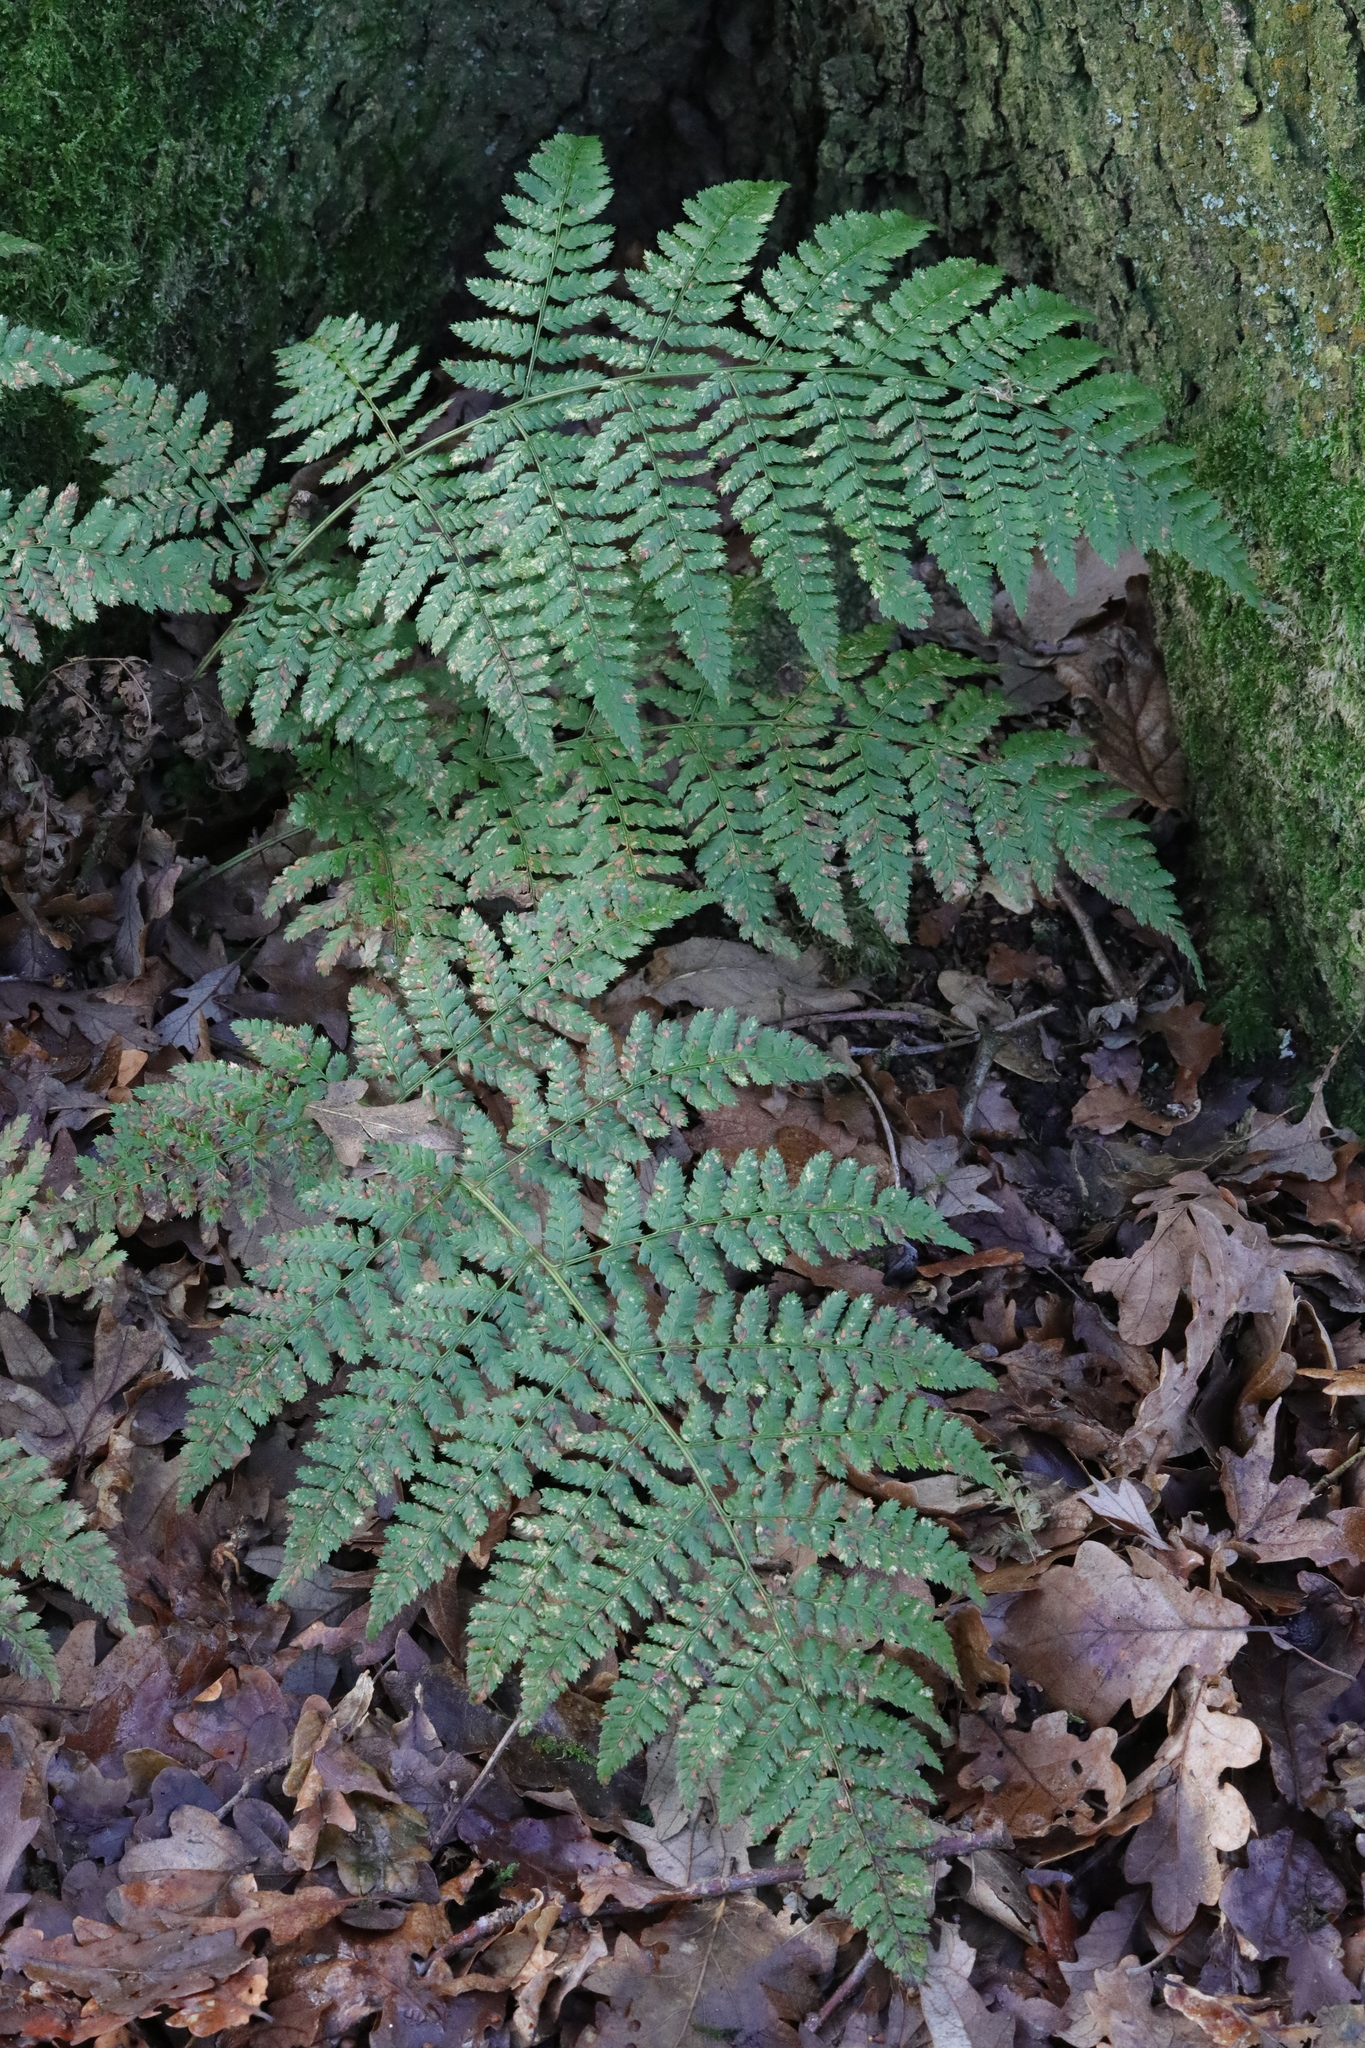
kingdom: Plantae
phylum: Tracheophyta
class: Polypodiopsida
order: Polypodiales
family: Dryopteridaceae
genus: Dryopteris
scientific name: Dryopteris dilatata
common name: Broad buckler-fern
